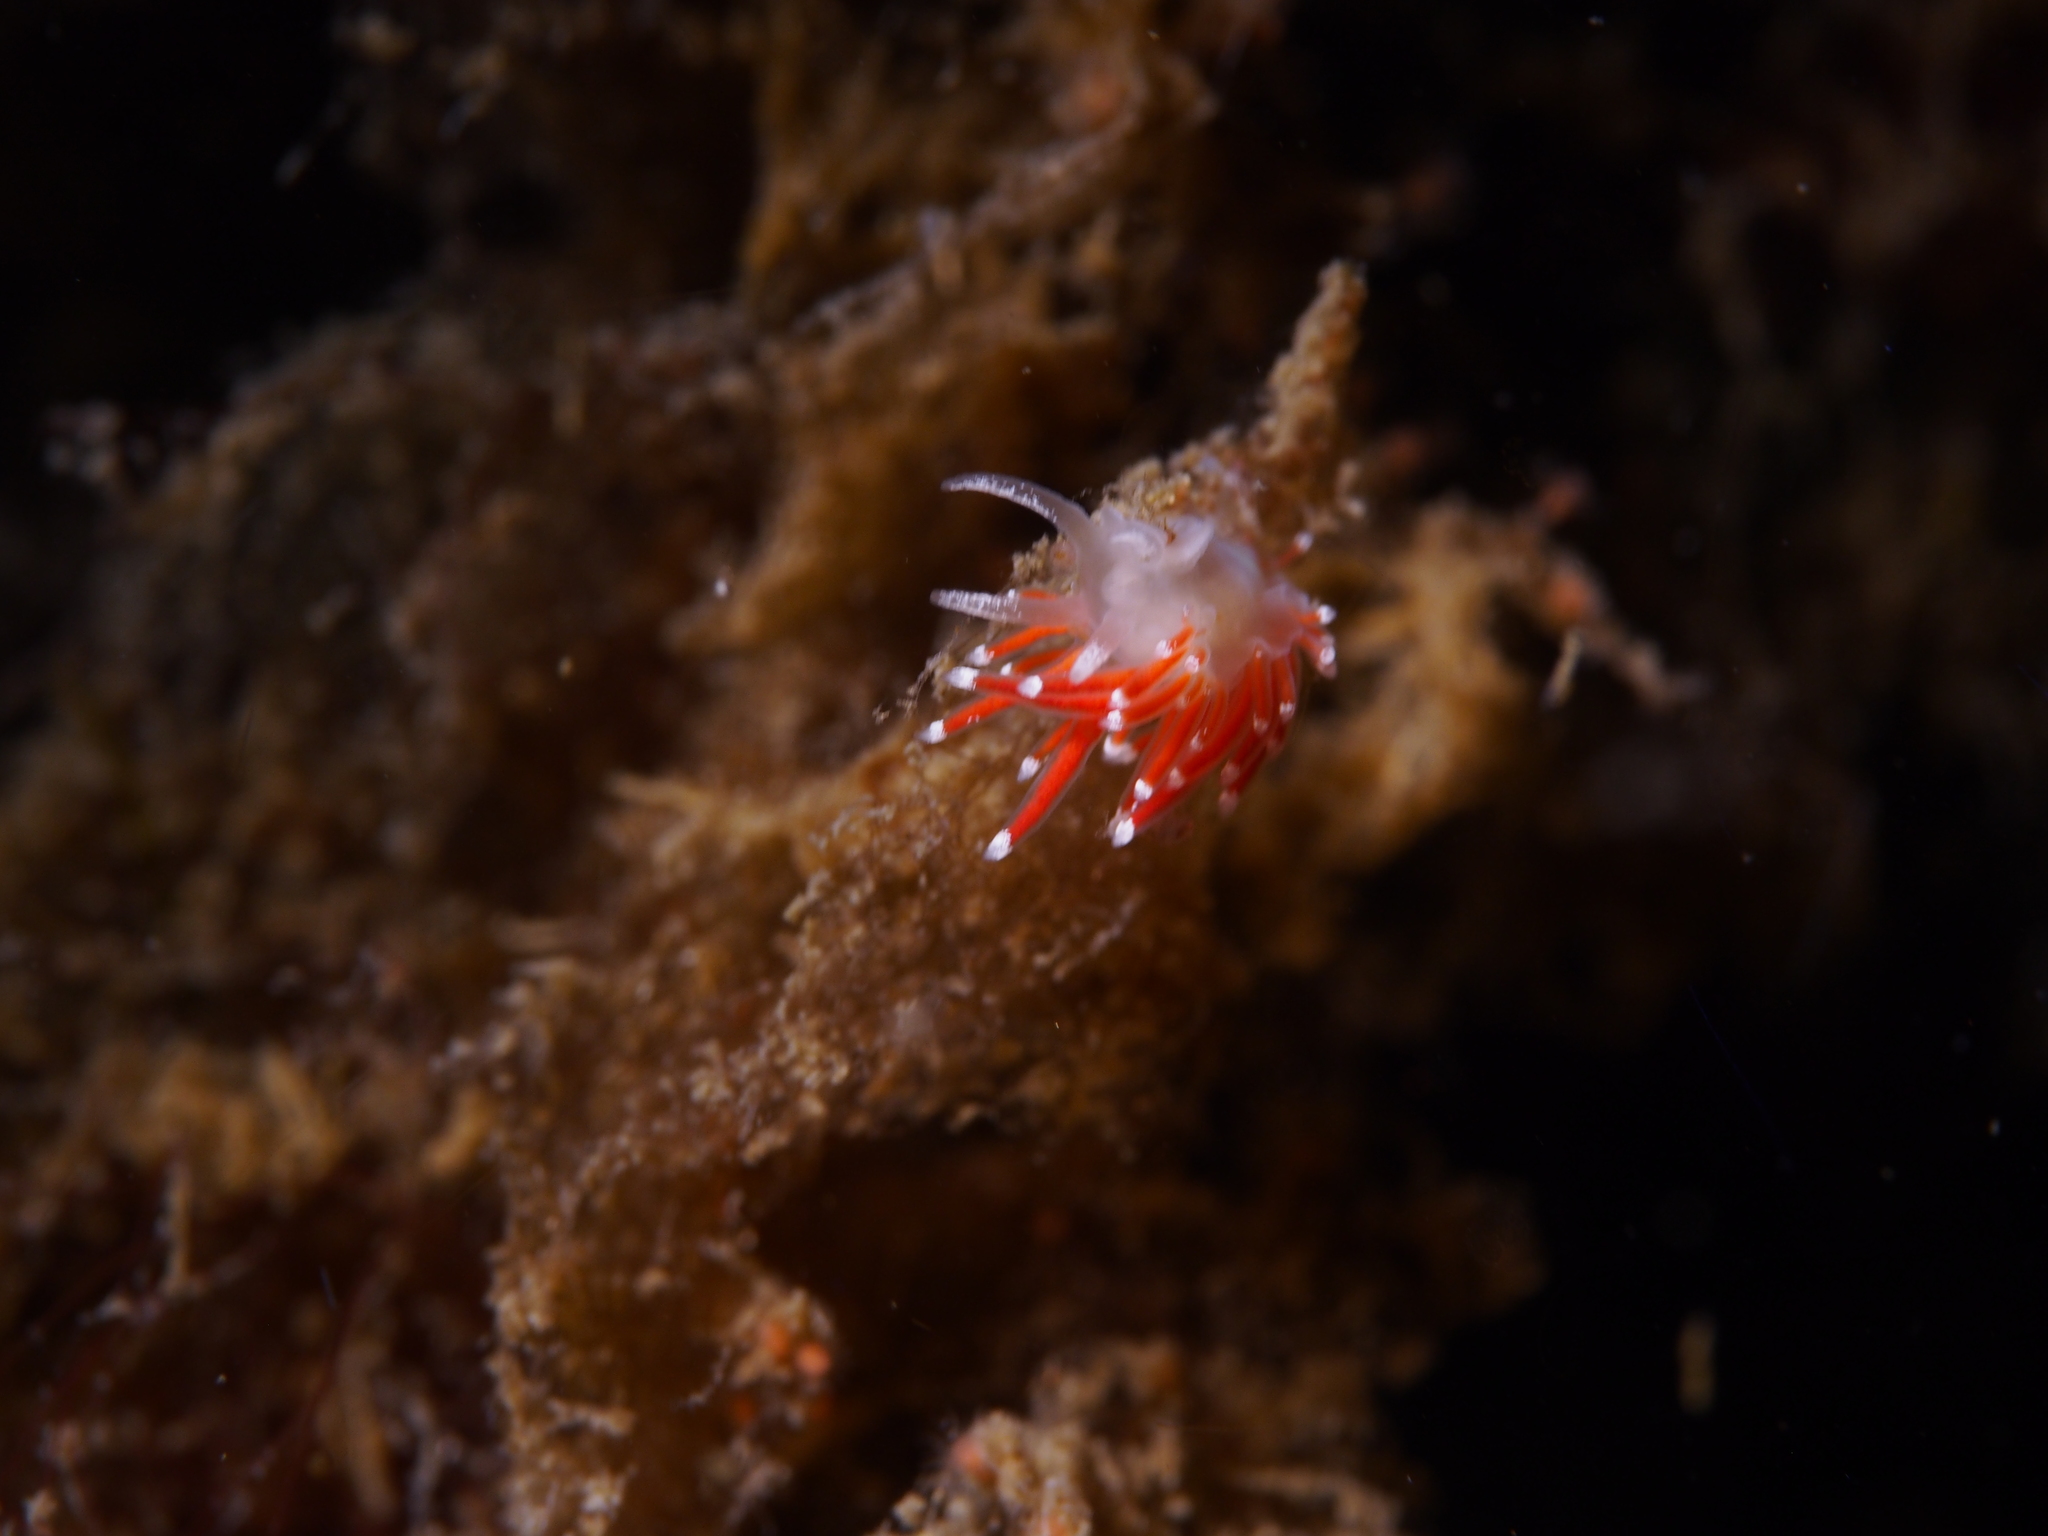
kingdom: Animalia
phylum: Mollusca
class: Gastropoda
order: Nudibranchia
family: Coryphellidae
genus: Coryphella
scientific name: Coryphella gracilis
